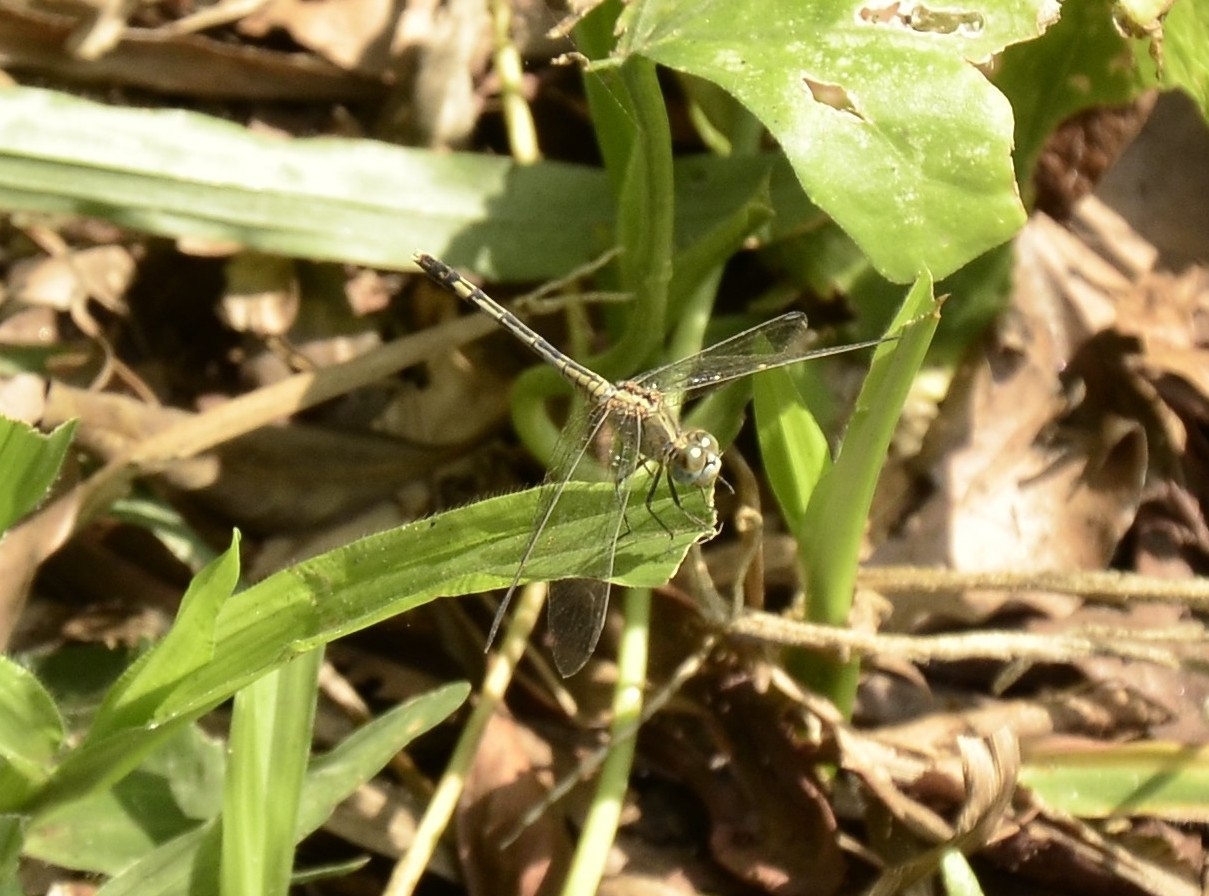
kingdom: Animalia
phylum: Arthropoda
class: Insecta
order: Odonata
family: Libellulidae
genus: Diplacodes
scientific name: Diplacodes trivialis
